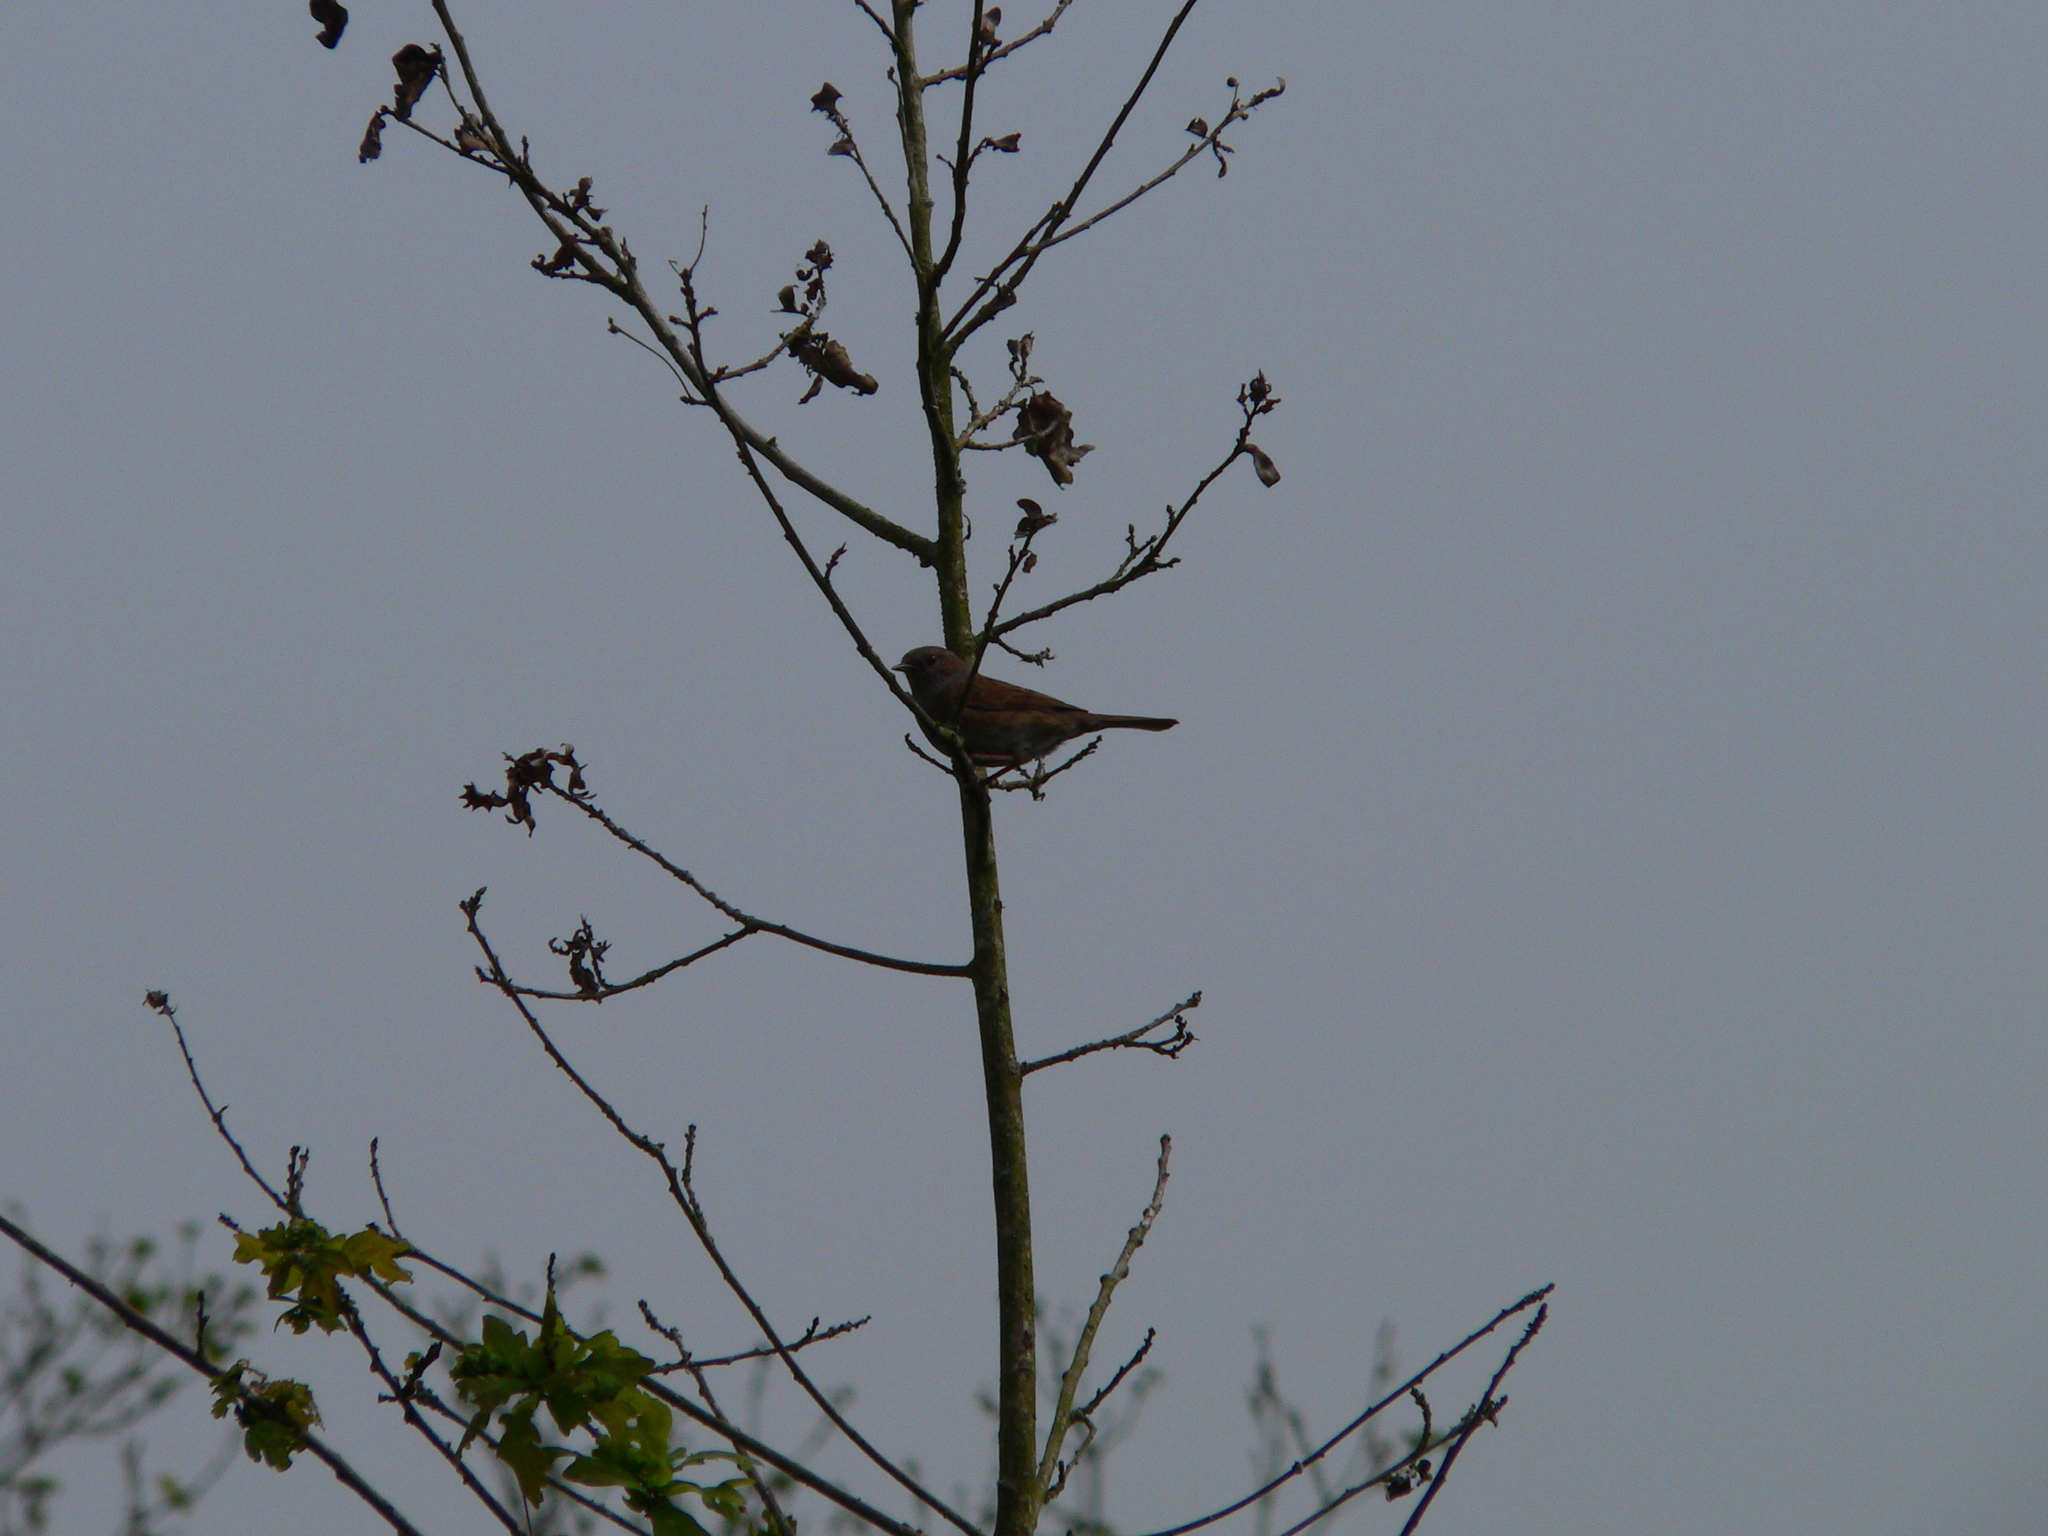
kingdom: Animalia
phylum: Chordata
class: Aves
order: Passeriformes
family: Prunellidae
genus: Prunella
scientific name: Prunella modularis
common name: Dunnock
